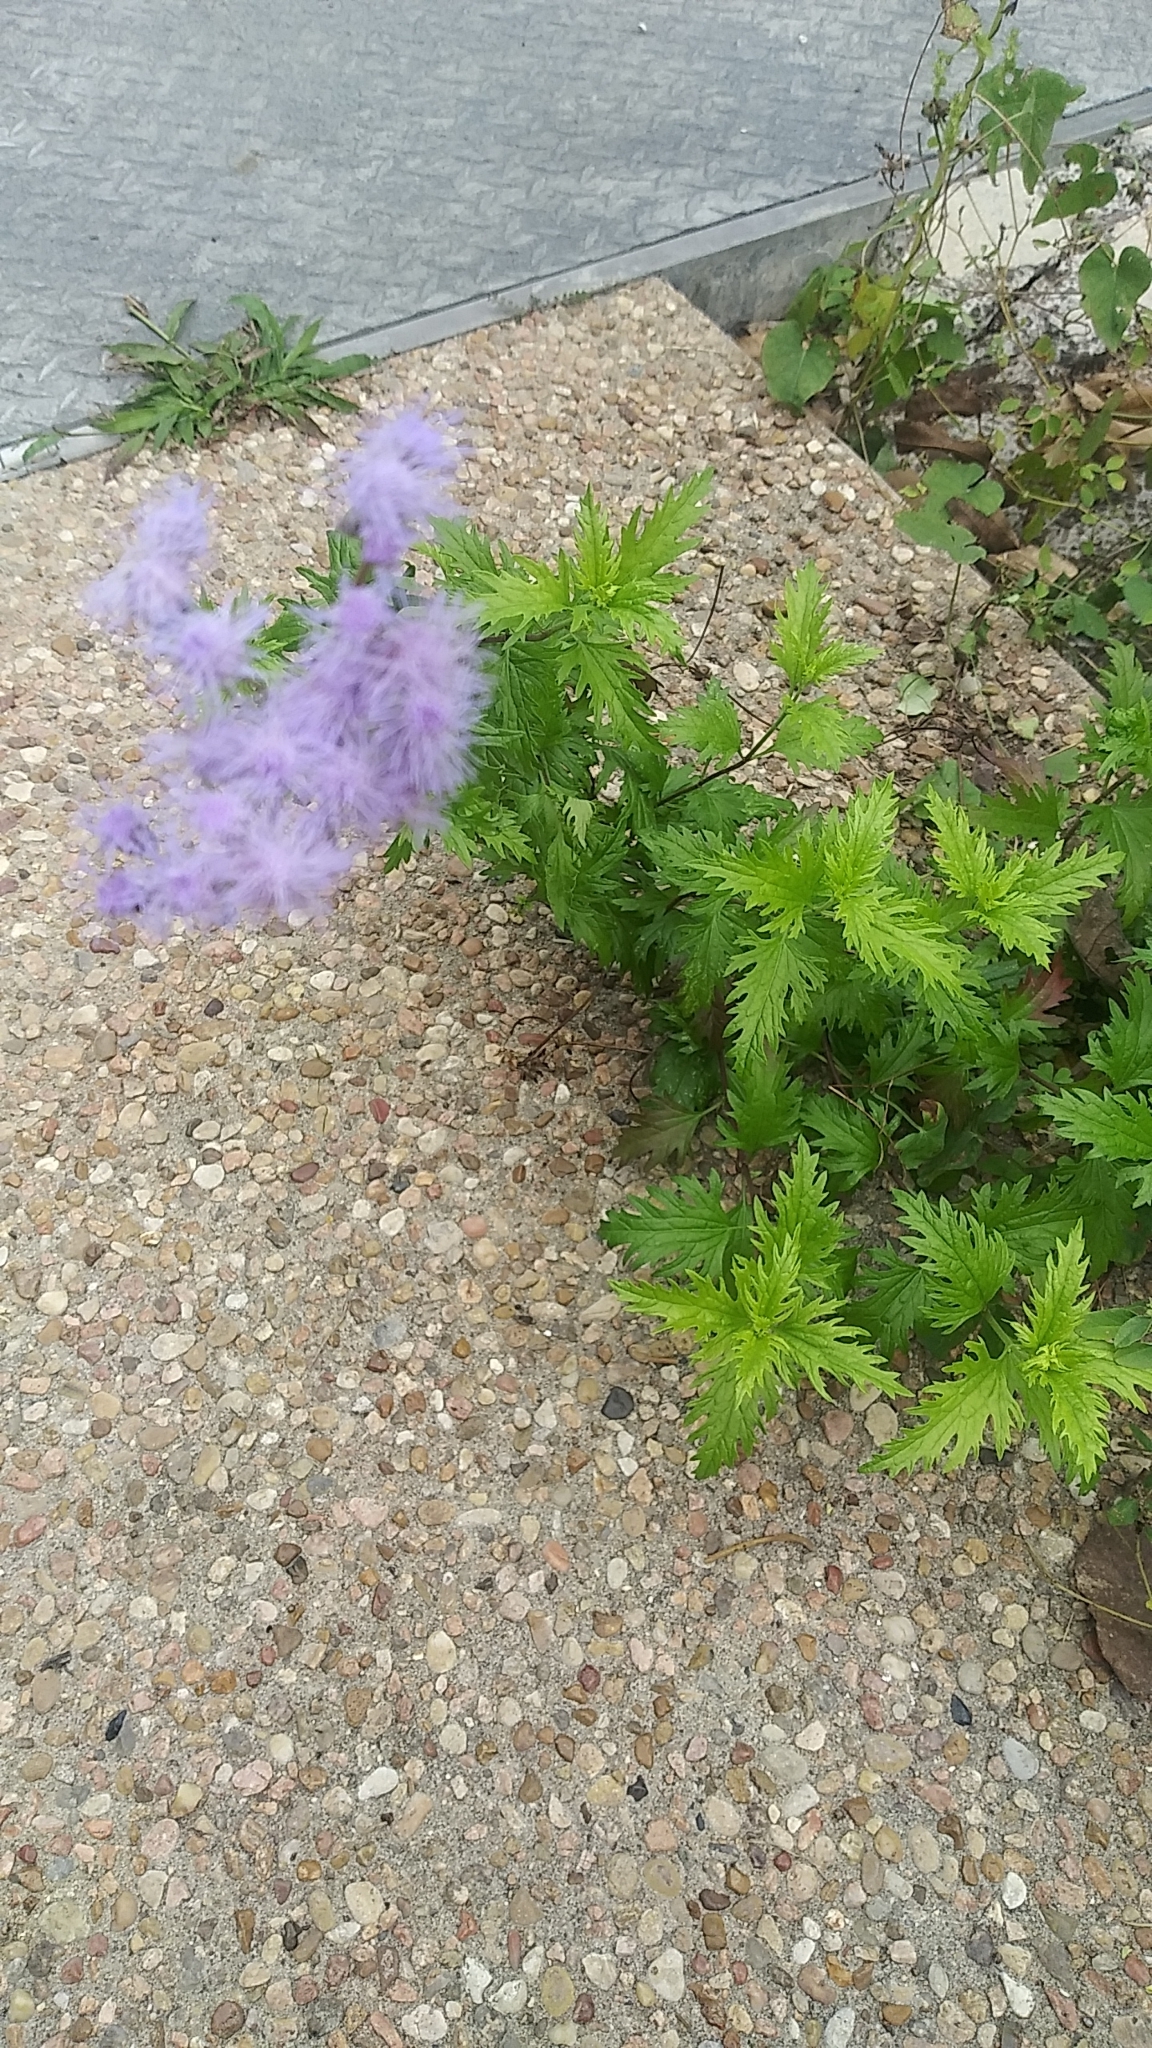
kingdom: Plantae
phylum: Tracheophyta
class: Magnoliopsida
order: Asterales
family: Asteraceae
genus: Conoclinium
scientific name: Conoclinium dissectum
